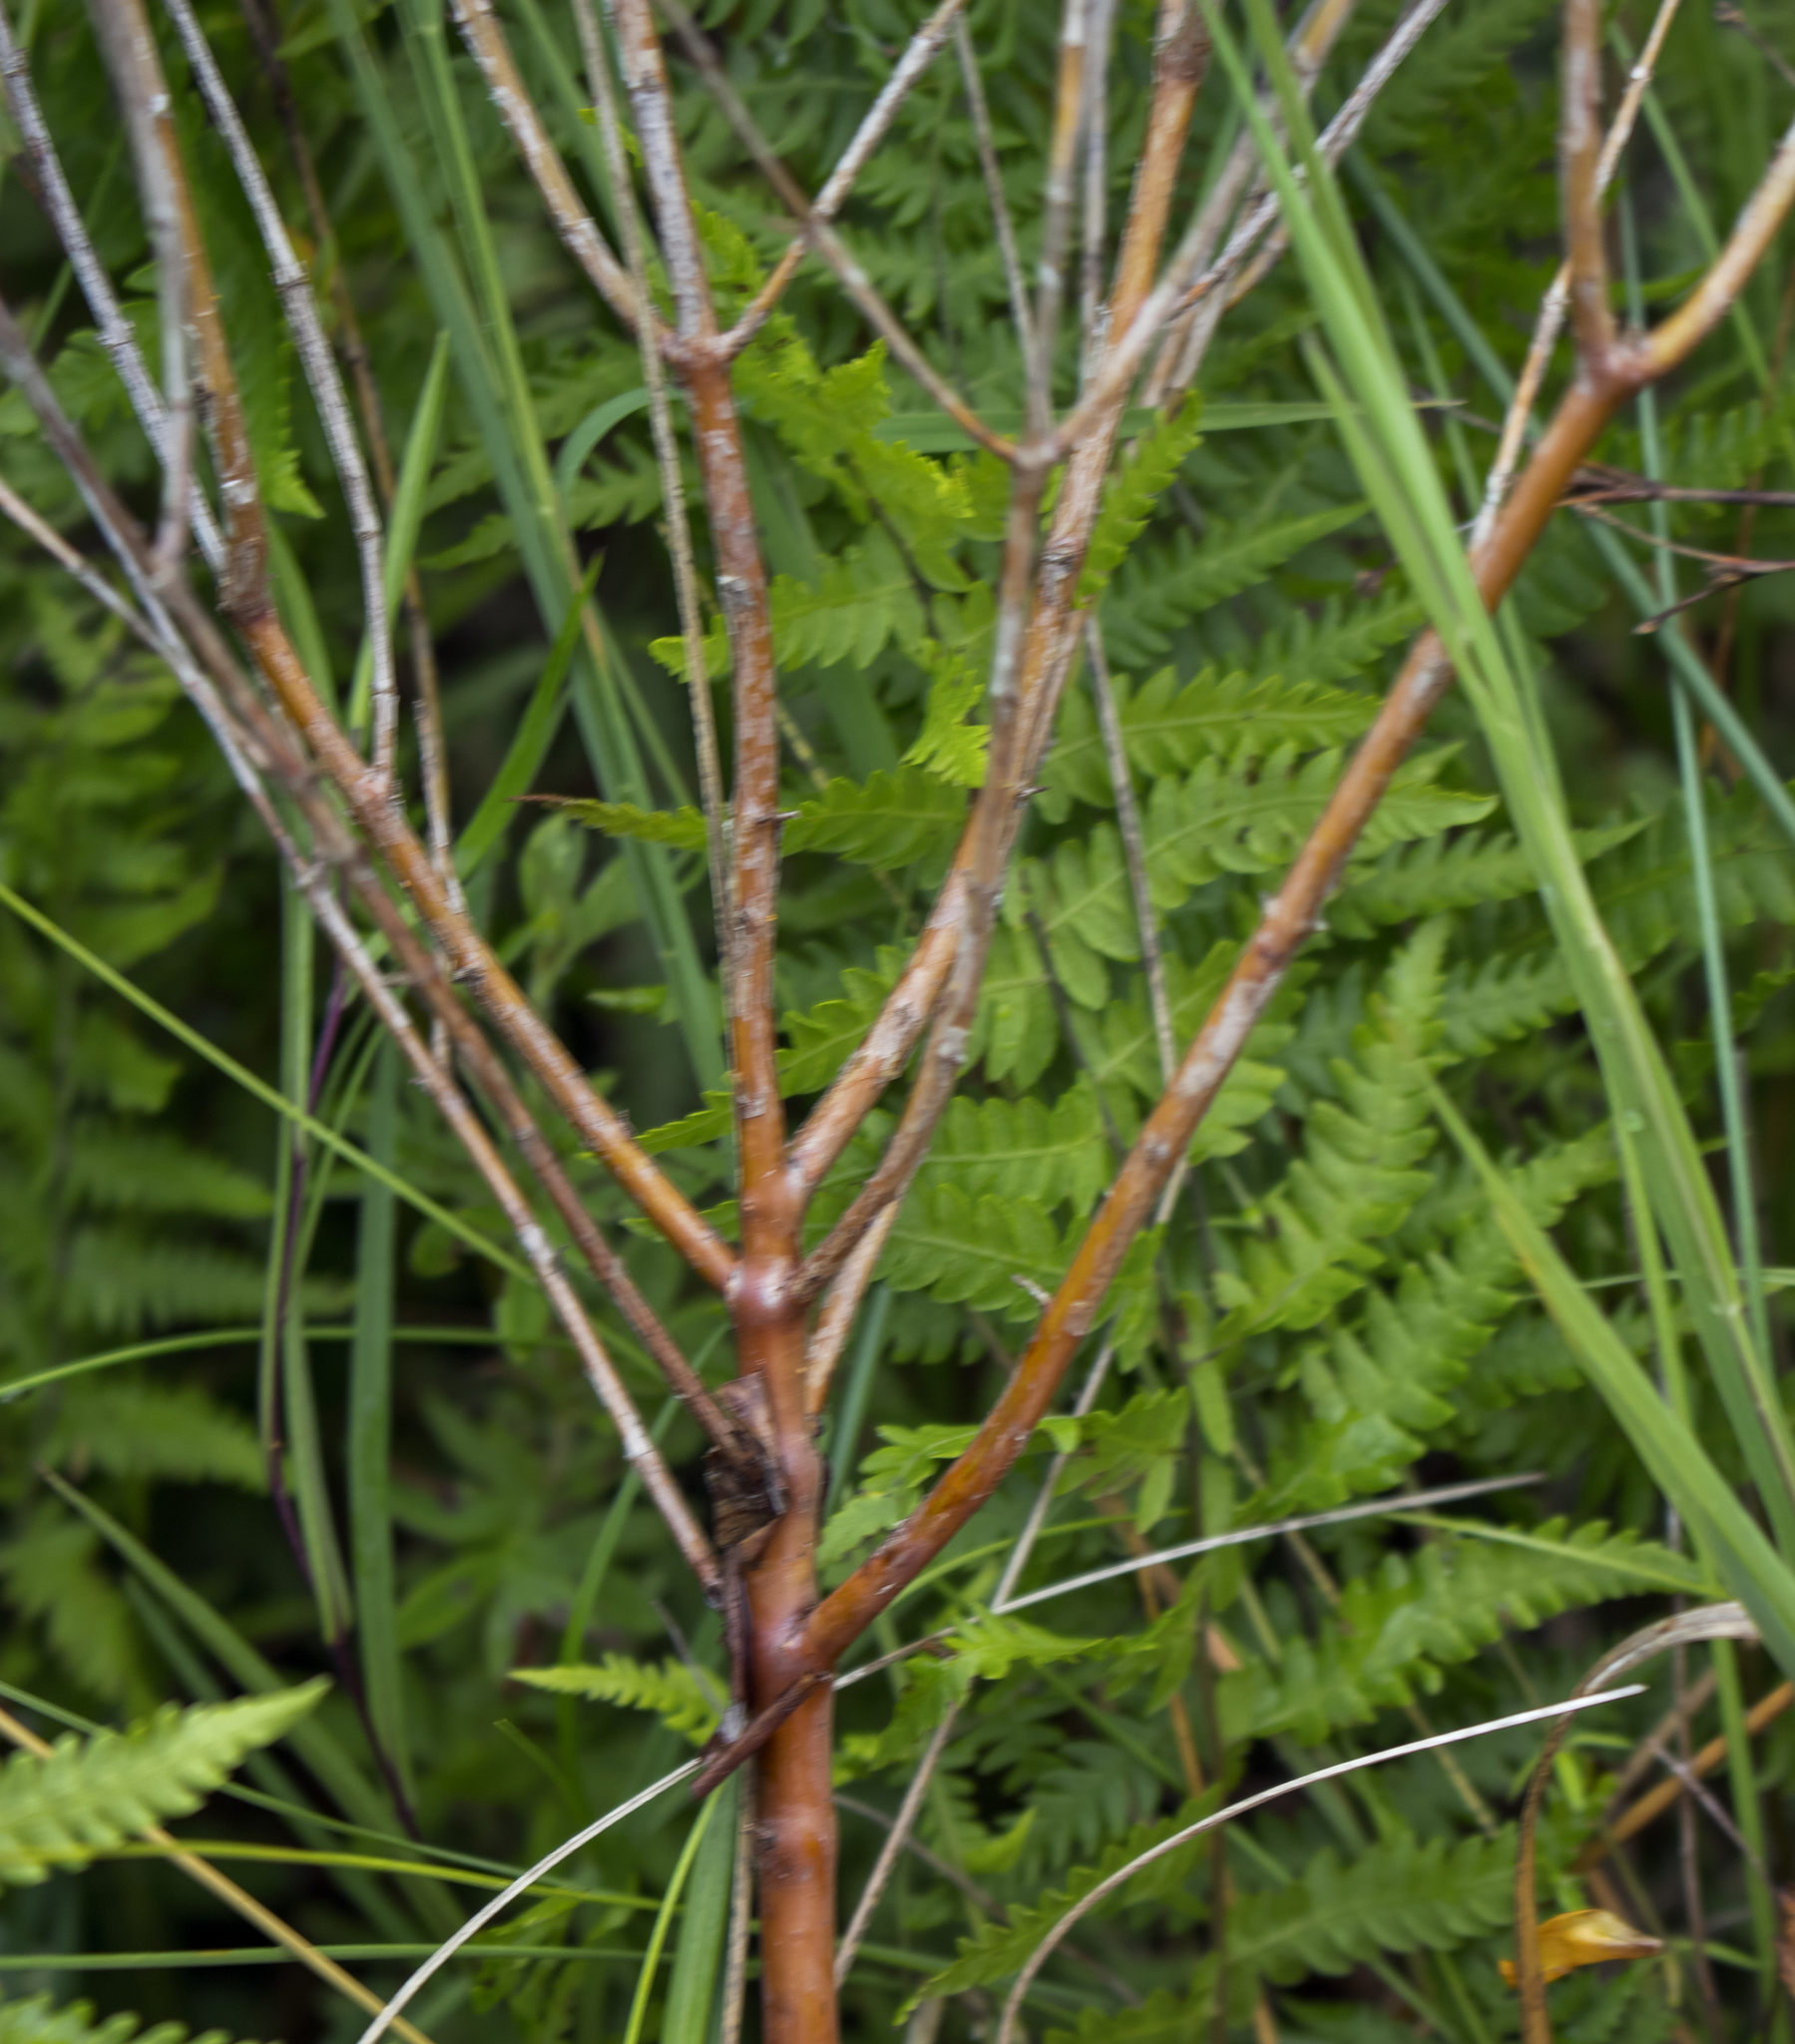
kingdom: Plantae
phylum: Tracheophyta
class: Magnoliopsida
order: Malpighiales
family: Hypericaceae
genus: Hypericum
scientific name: Hypericum kalmianum
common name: Kalm's st. john's-wort
